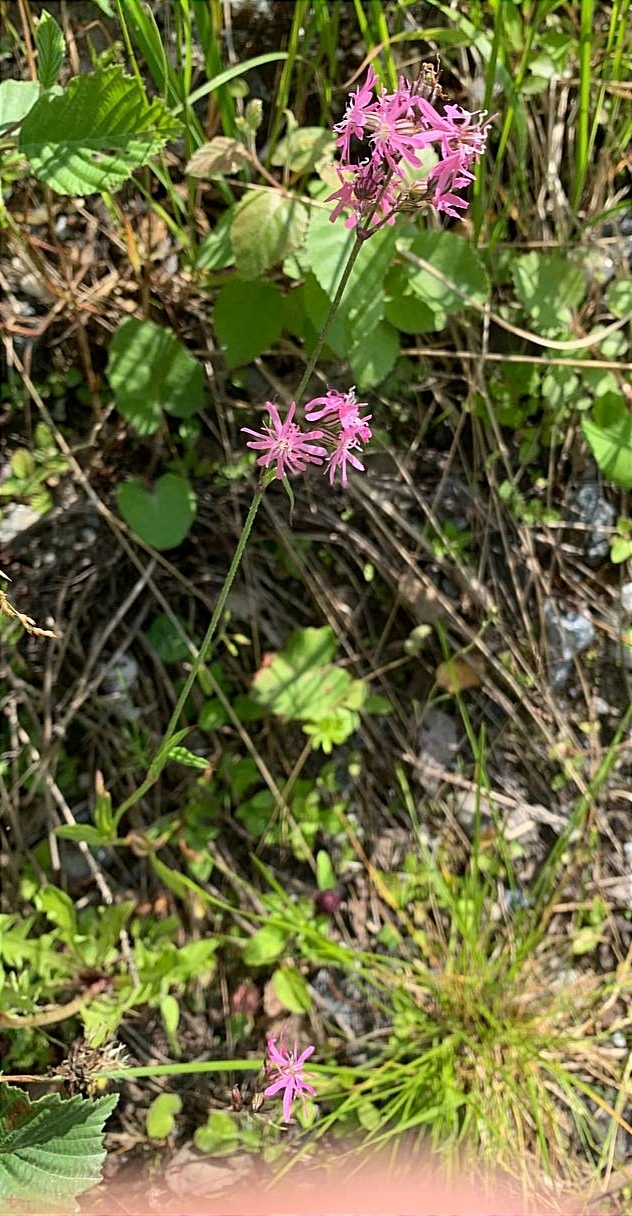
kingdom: Plantae
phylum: Tracheophyta
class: Magnoliopsida
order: Caryophyllales
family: Caryophyllaceae
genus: Silene
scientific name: Silene flos-cuculi
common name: Ragged-robin
